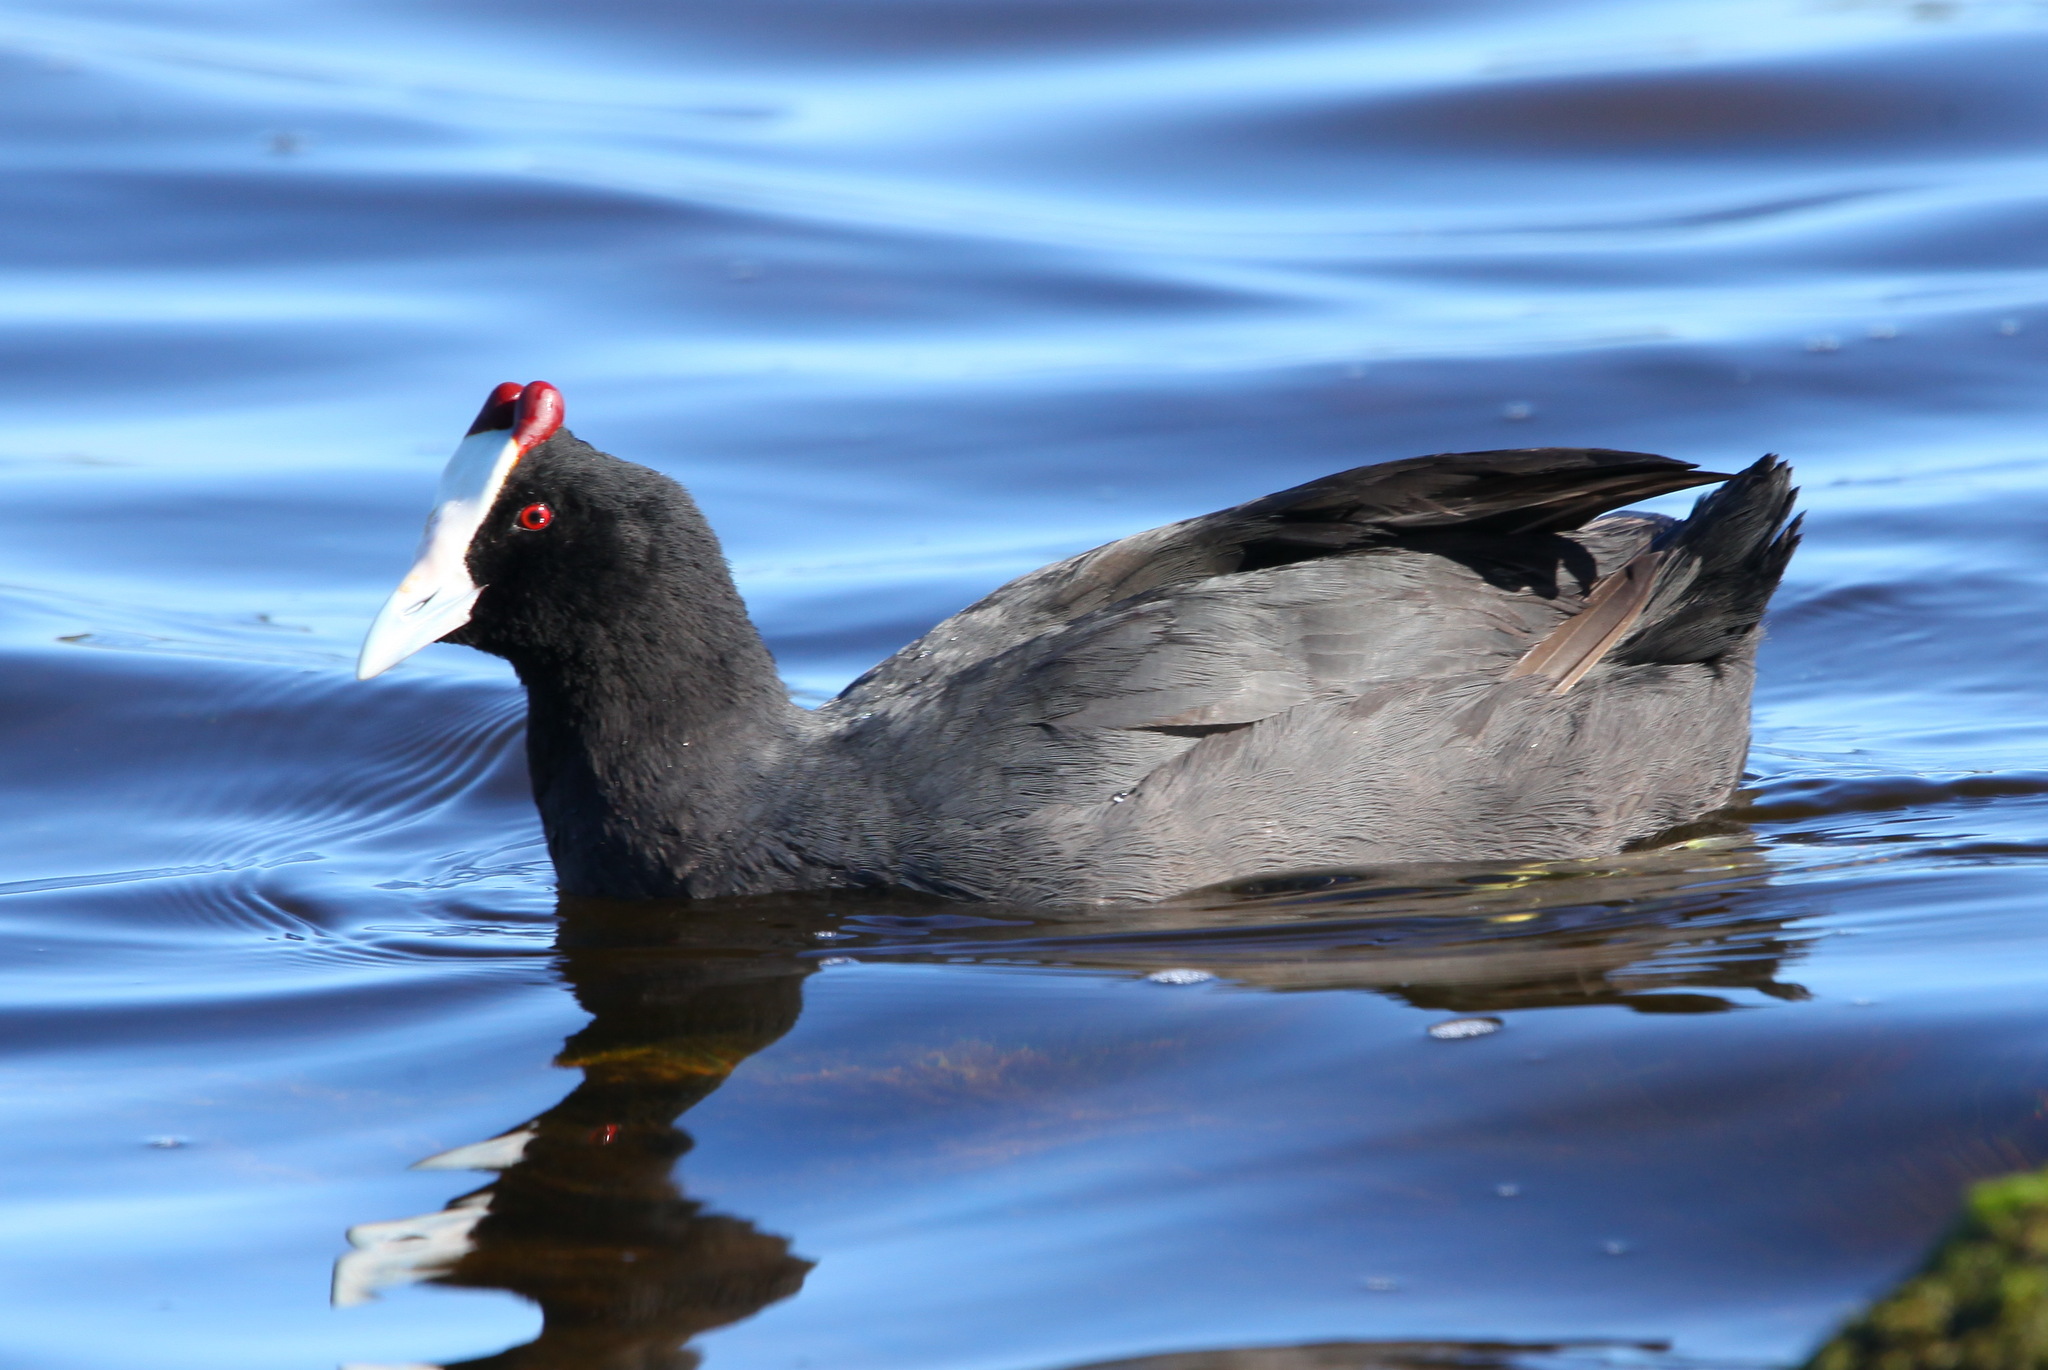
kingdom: Animalia
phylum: Chordata
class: Aves
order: Gruiformes
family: Rallidae
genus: Fulica
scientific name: Fulica cristata
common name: Red-knobbed coot
